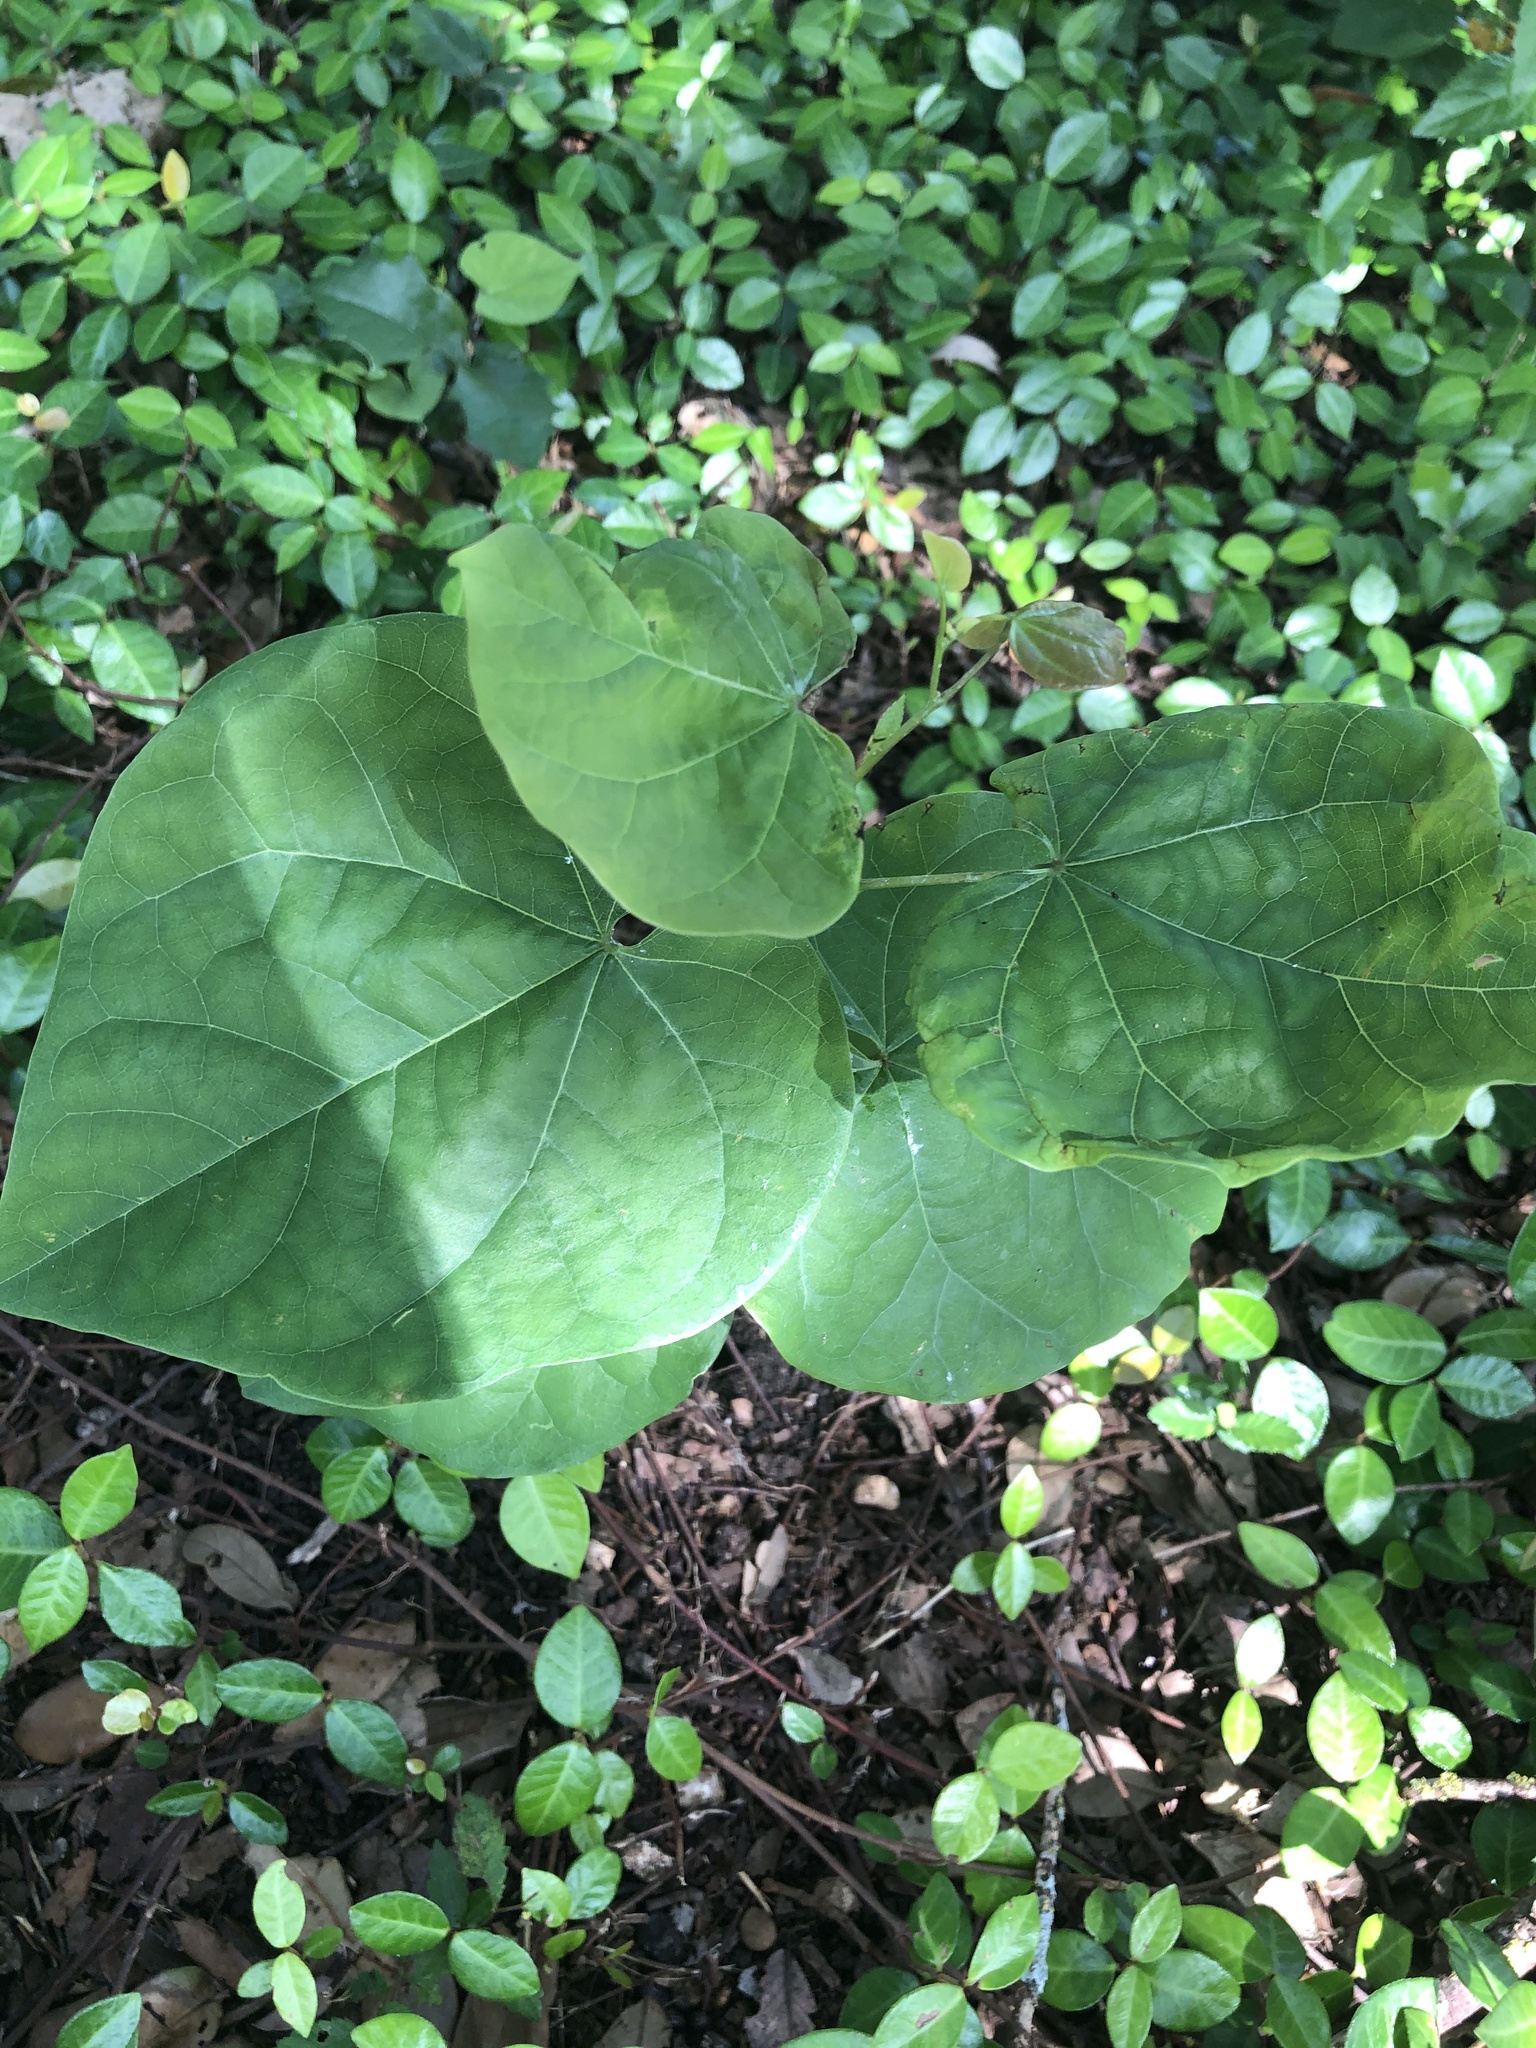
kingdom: Plantae
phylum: Tracheophyta
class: Magnoliopsida
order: Fabales
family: Fabaceae
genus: Cercis
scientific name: Cercis canadensis
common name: Eastern redbud
